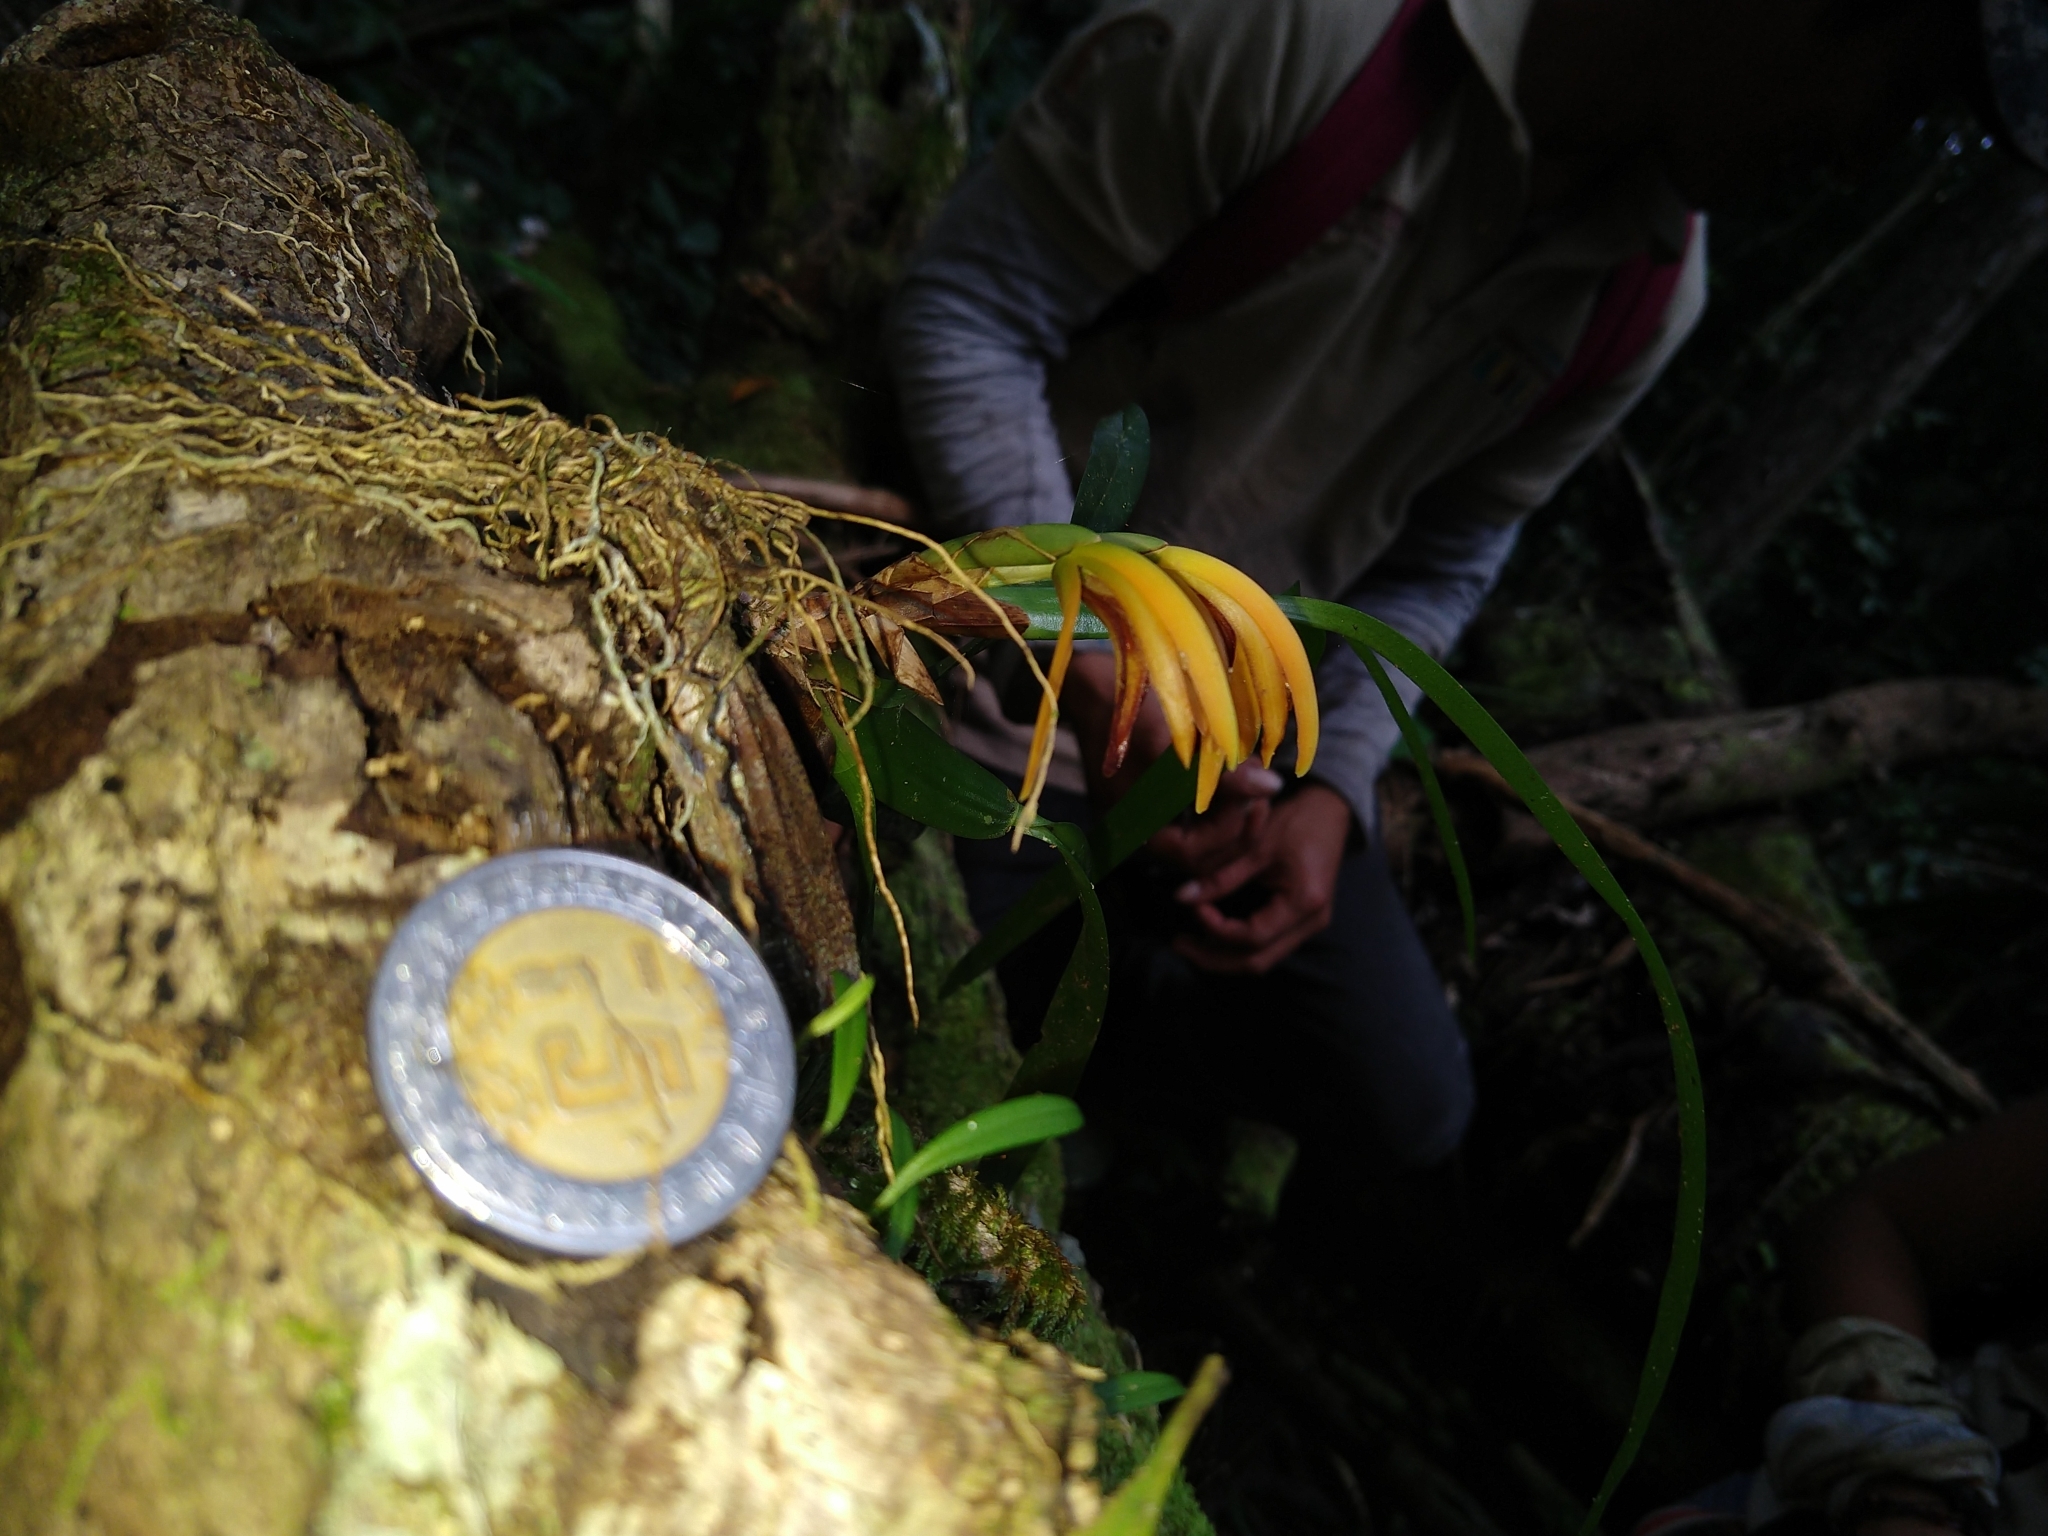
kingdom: Plantae
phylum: Tracheophyta
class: Liliopsida
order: Asparagales
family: Orchidaceae
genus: Maxillaria
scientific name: Maxillaria aciantha
